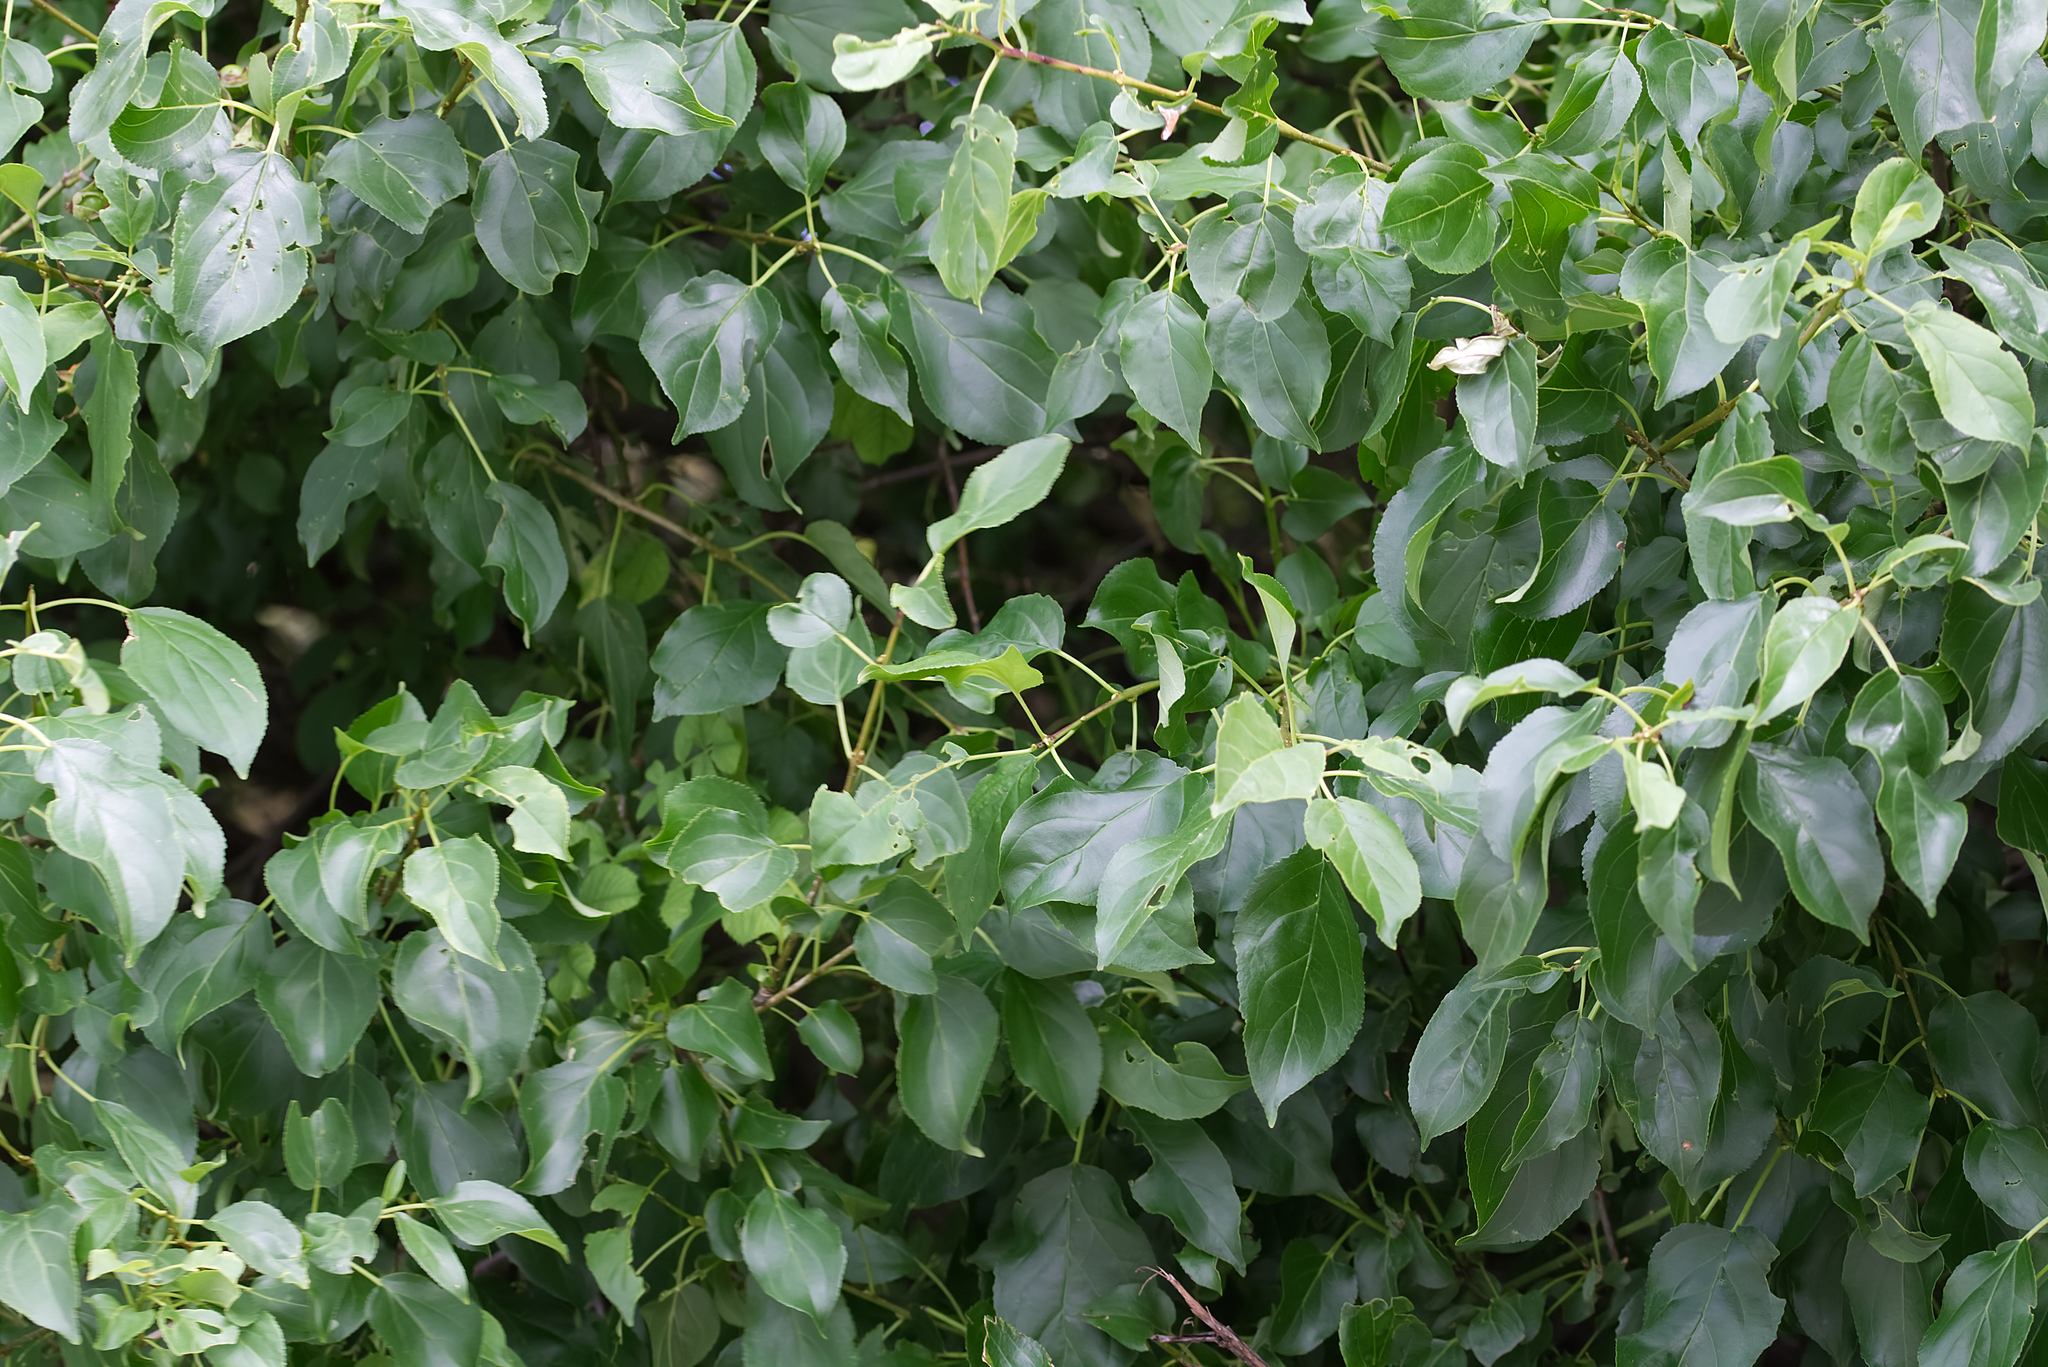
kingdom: Plantae
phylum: Tracheophyta
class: Magnoliopsida
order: Rosales
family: Rhamnaceae
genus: Rhamnus
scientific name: Rhamnus cathartica
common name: Common buckthorn
